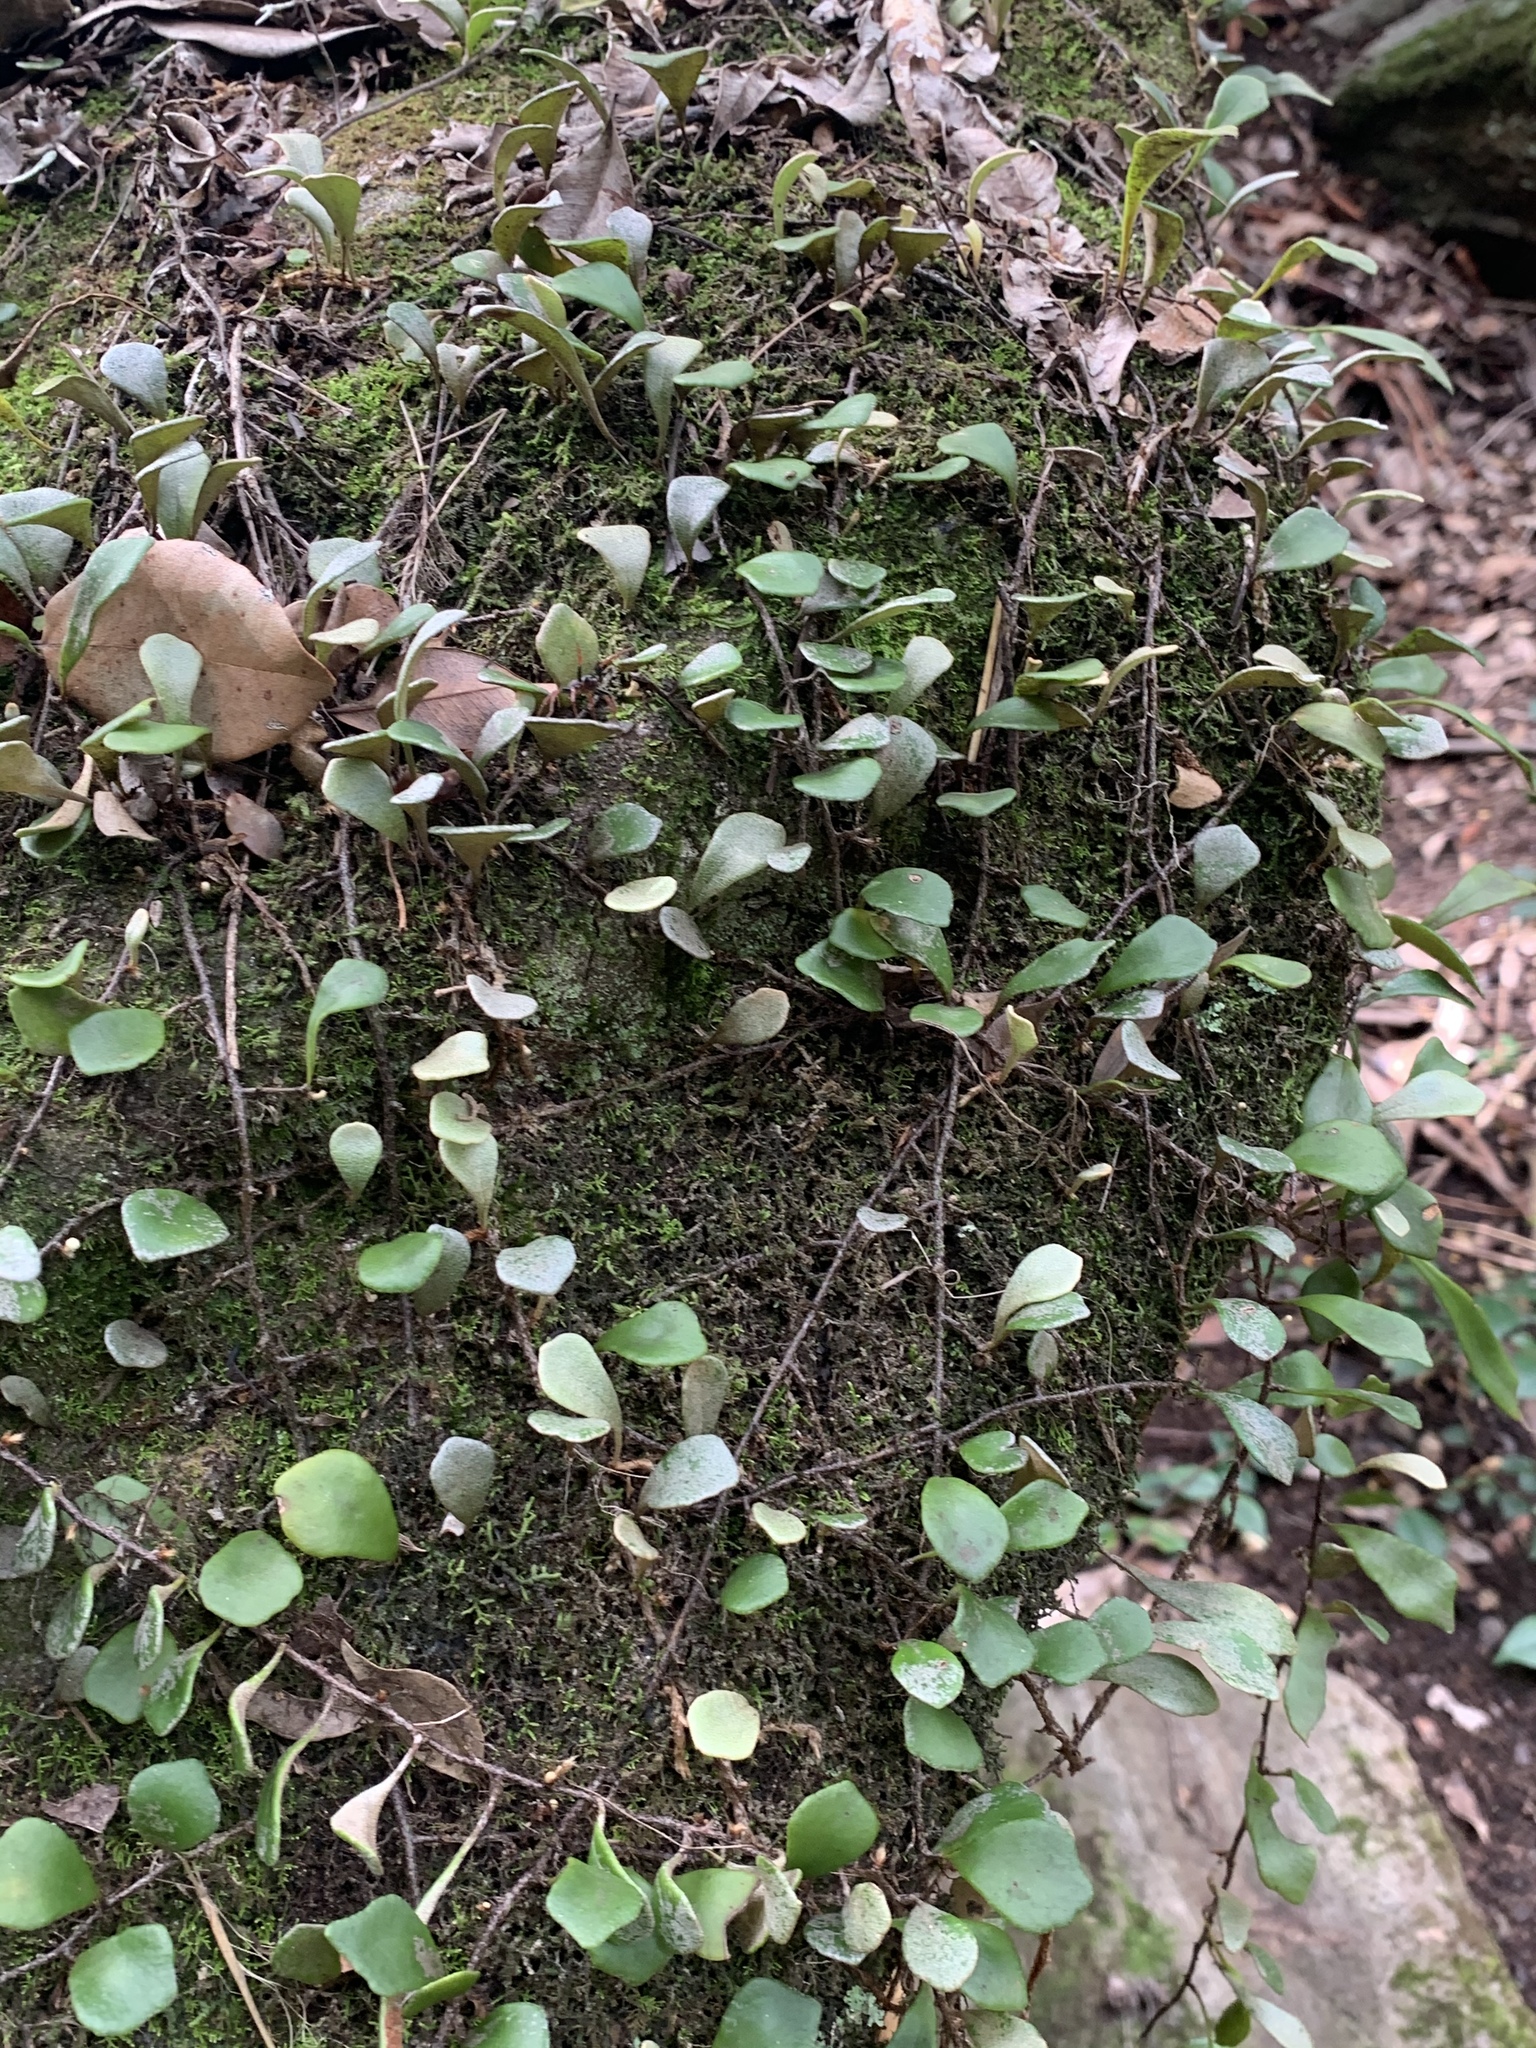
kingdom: Plantae
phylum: Tracheophyta
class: Polypodiopsida
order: Polypodiales
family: Polypodiaceae
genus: Pyrrosia
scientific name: Pyrrosia rupestris
